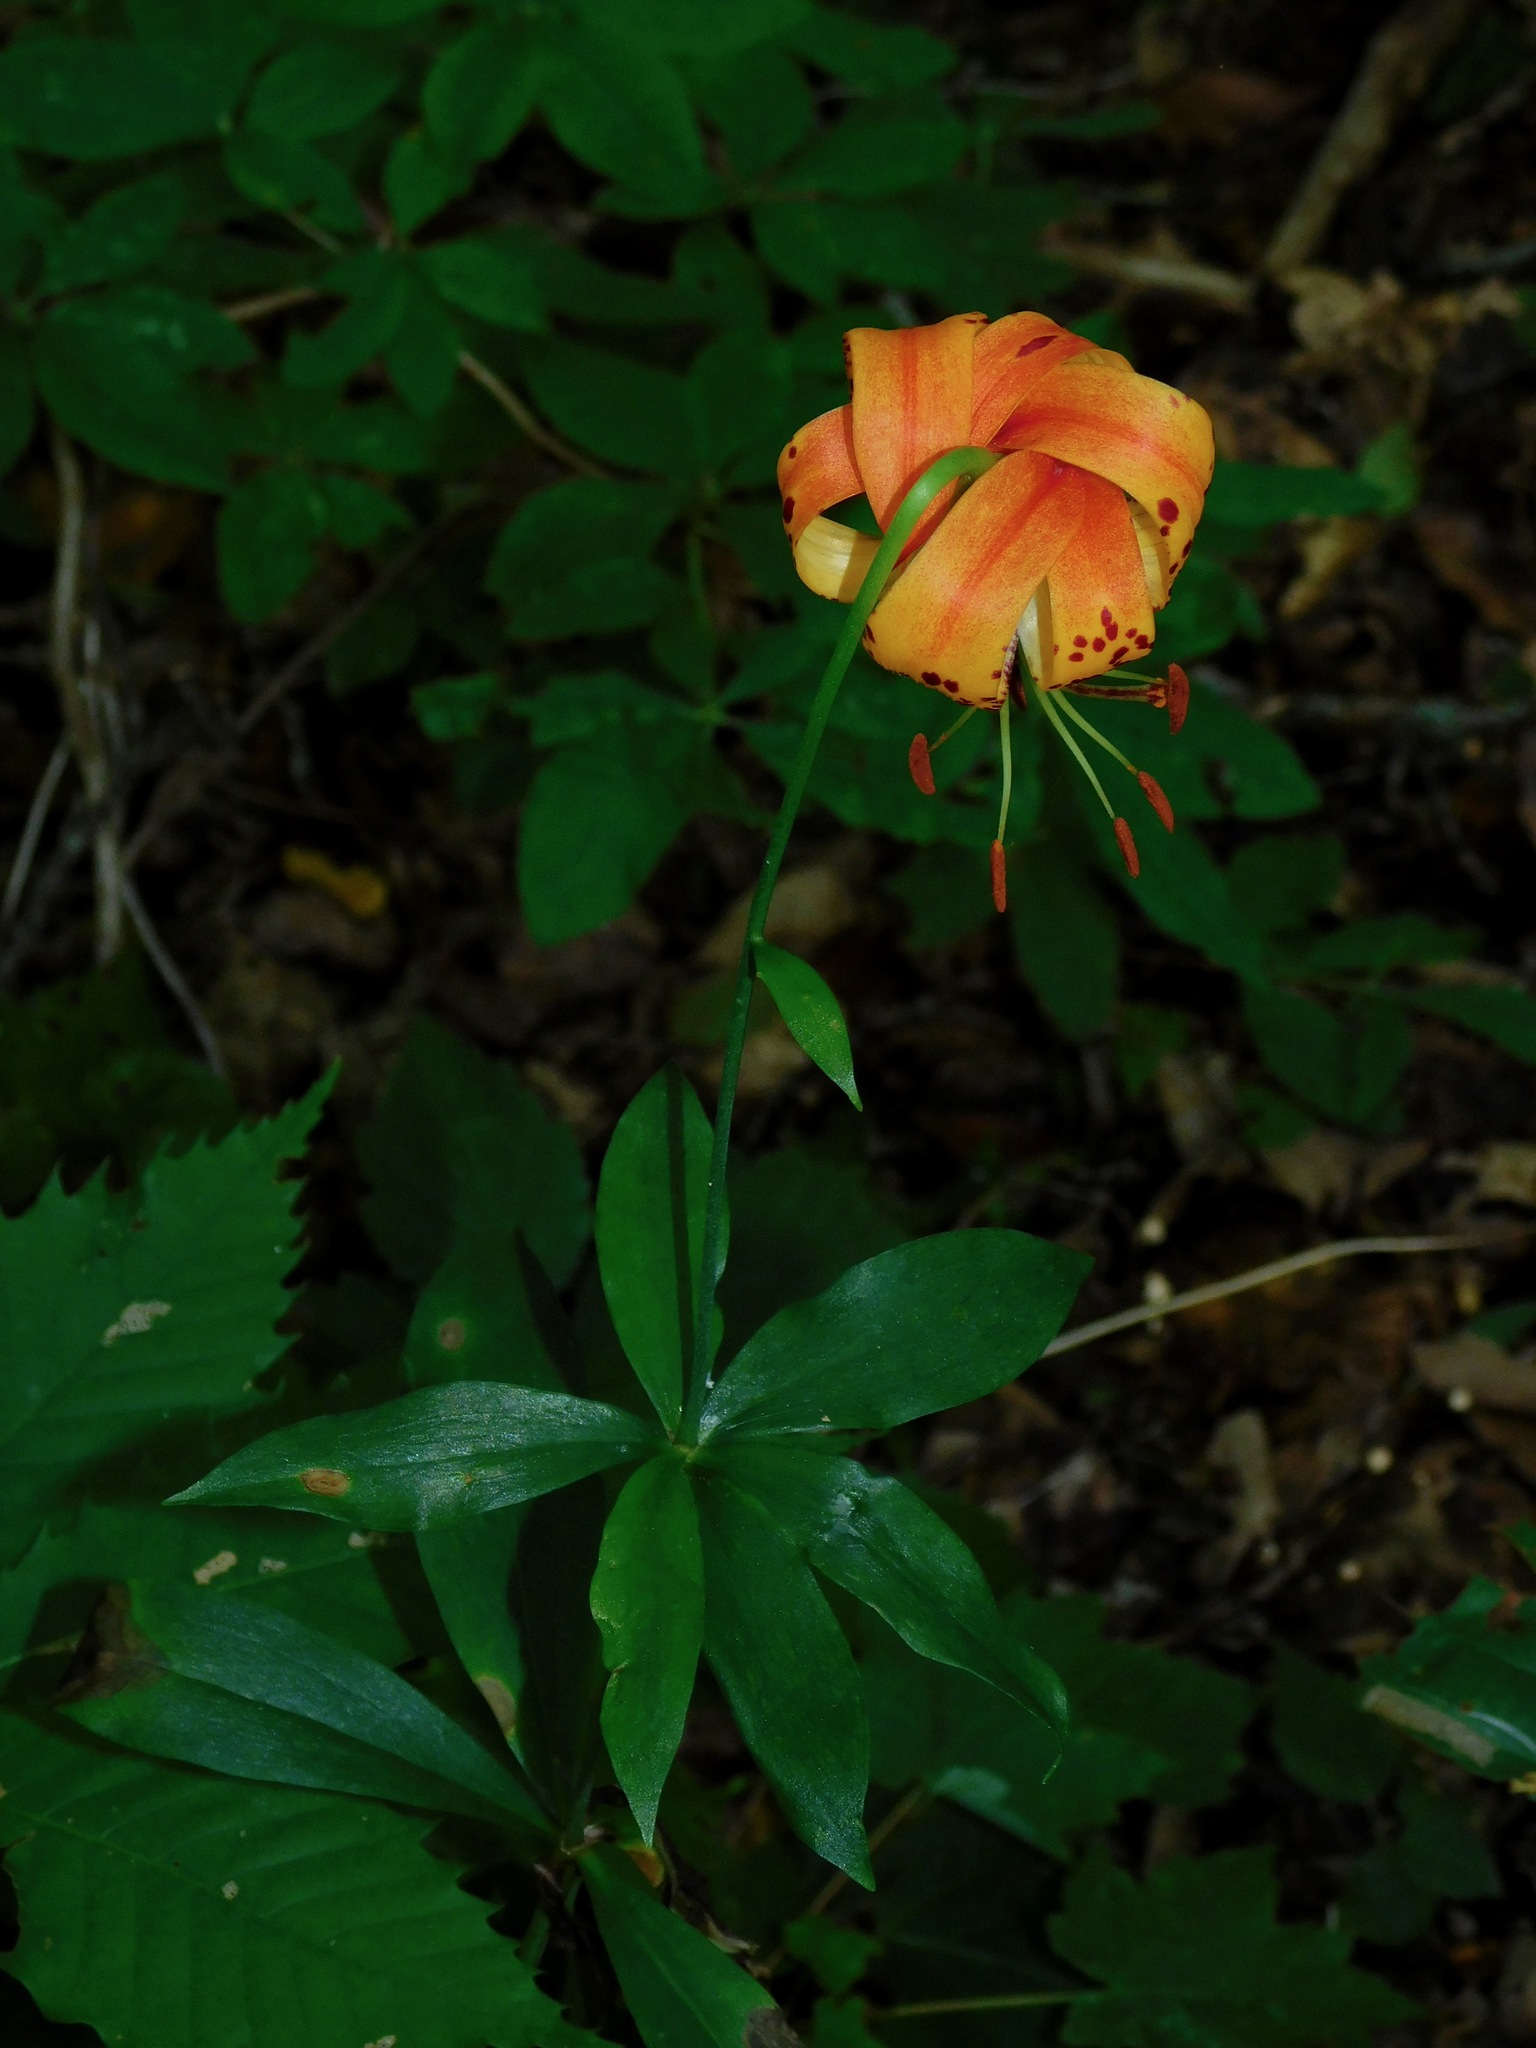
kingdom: Plantae
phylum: Tracheophyta
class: Liliopsida
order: Liliales
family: Liliaceae
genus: Lilium
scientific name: Lilium michauxii
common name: Carolina lily
